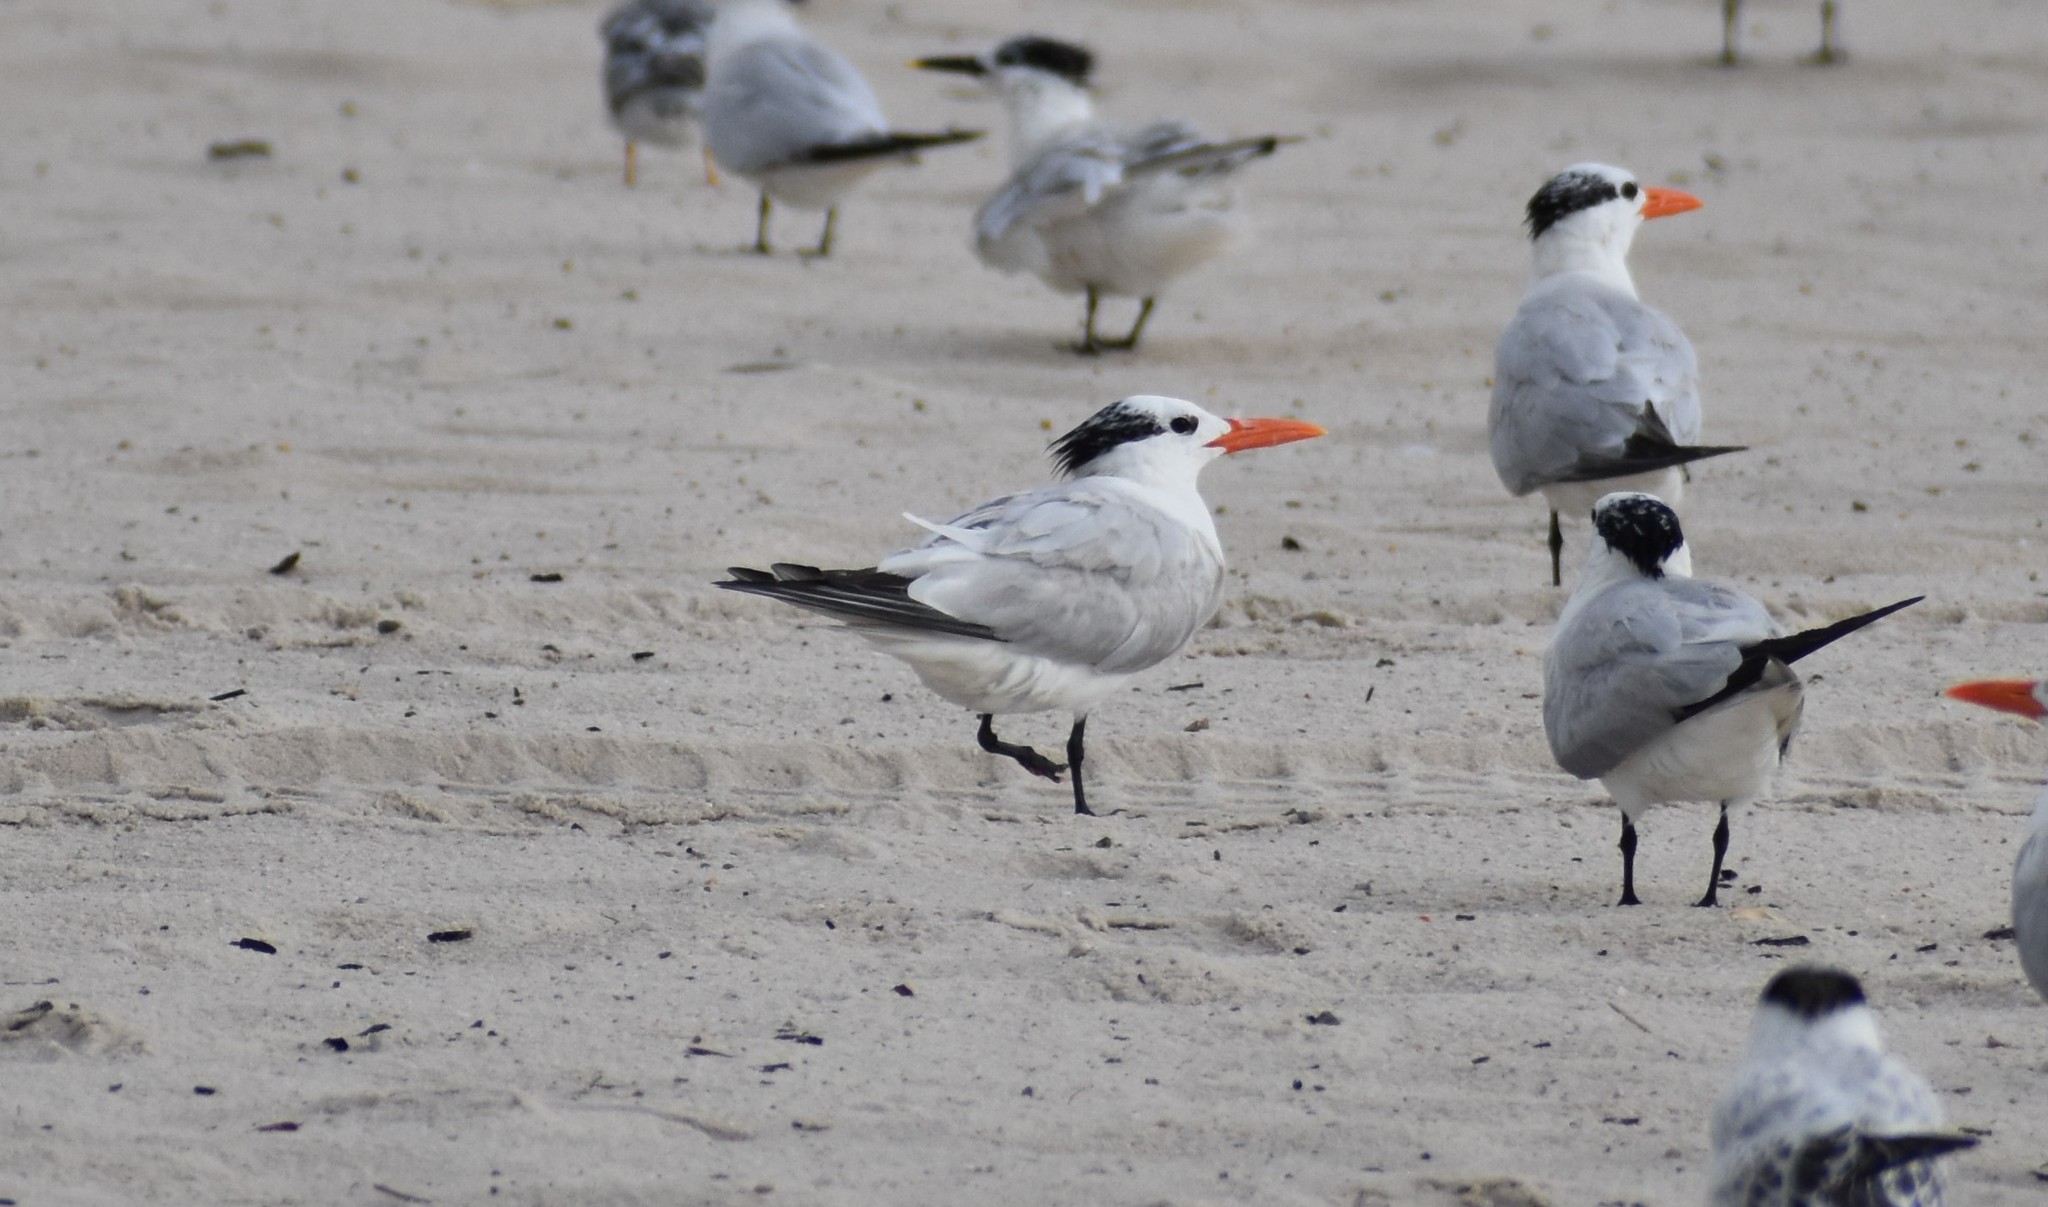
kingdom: Animalia
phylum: Chordata
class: Aves
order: Charadriiformes
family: Laridae
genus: Thalasseus
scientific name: Thalasseus maximus
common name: Royal tern
